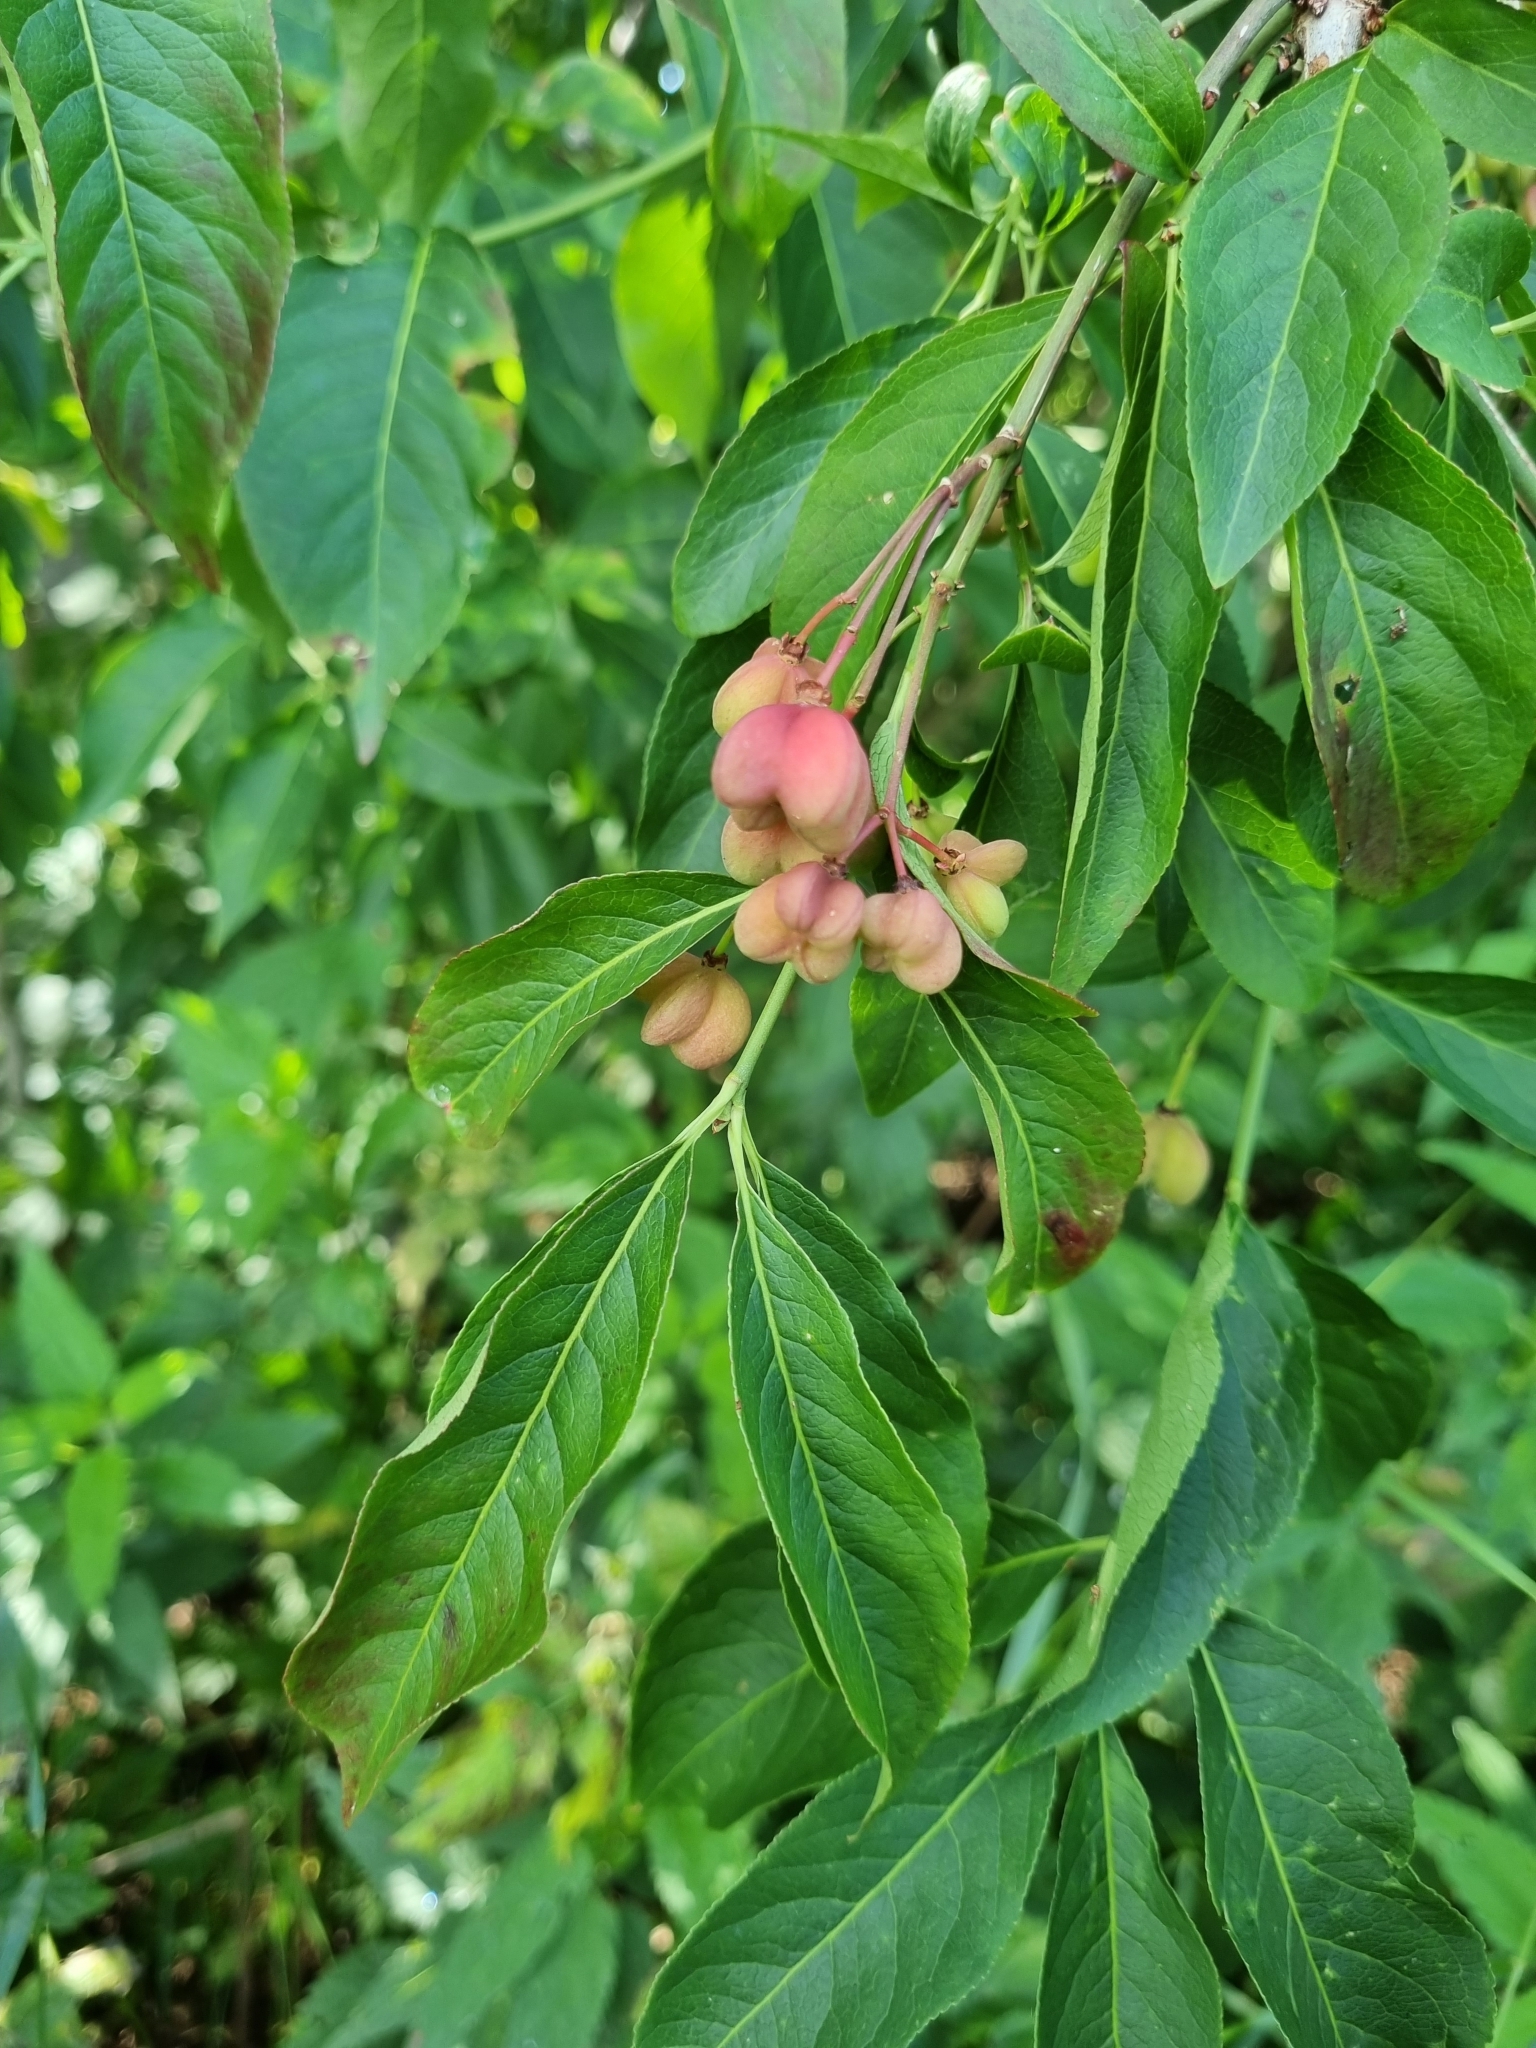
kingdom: Plantae
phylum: Tracheophyta
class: Magnoliopsida
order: Celastrales
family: Celastraceae
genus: Euonymus
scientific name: Euonymus europaeus
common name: Spindle
